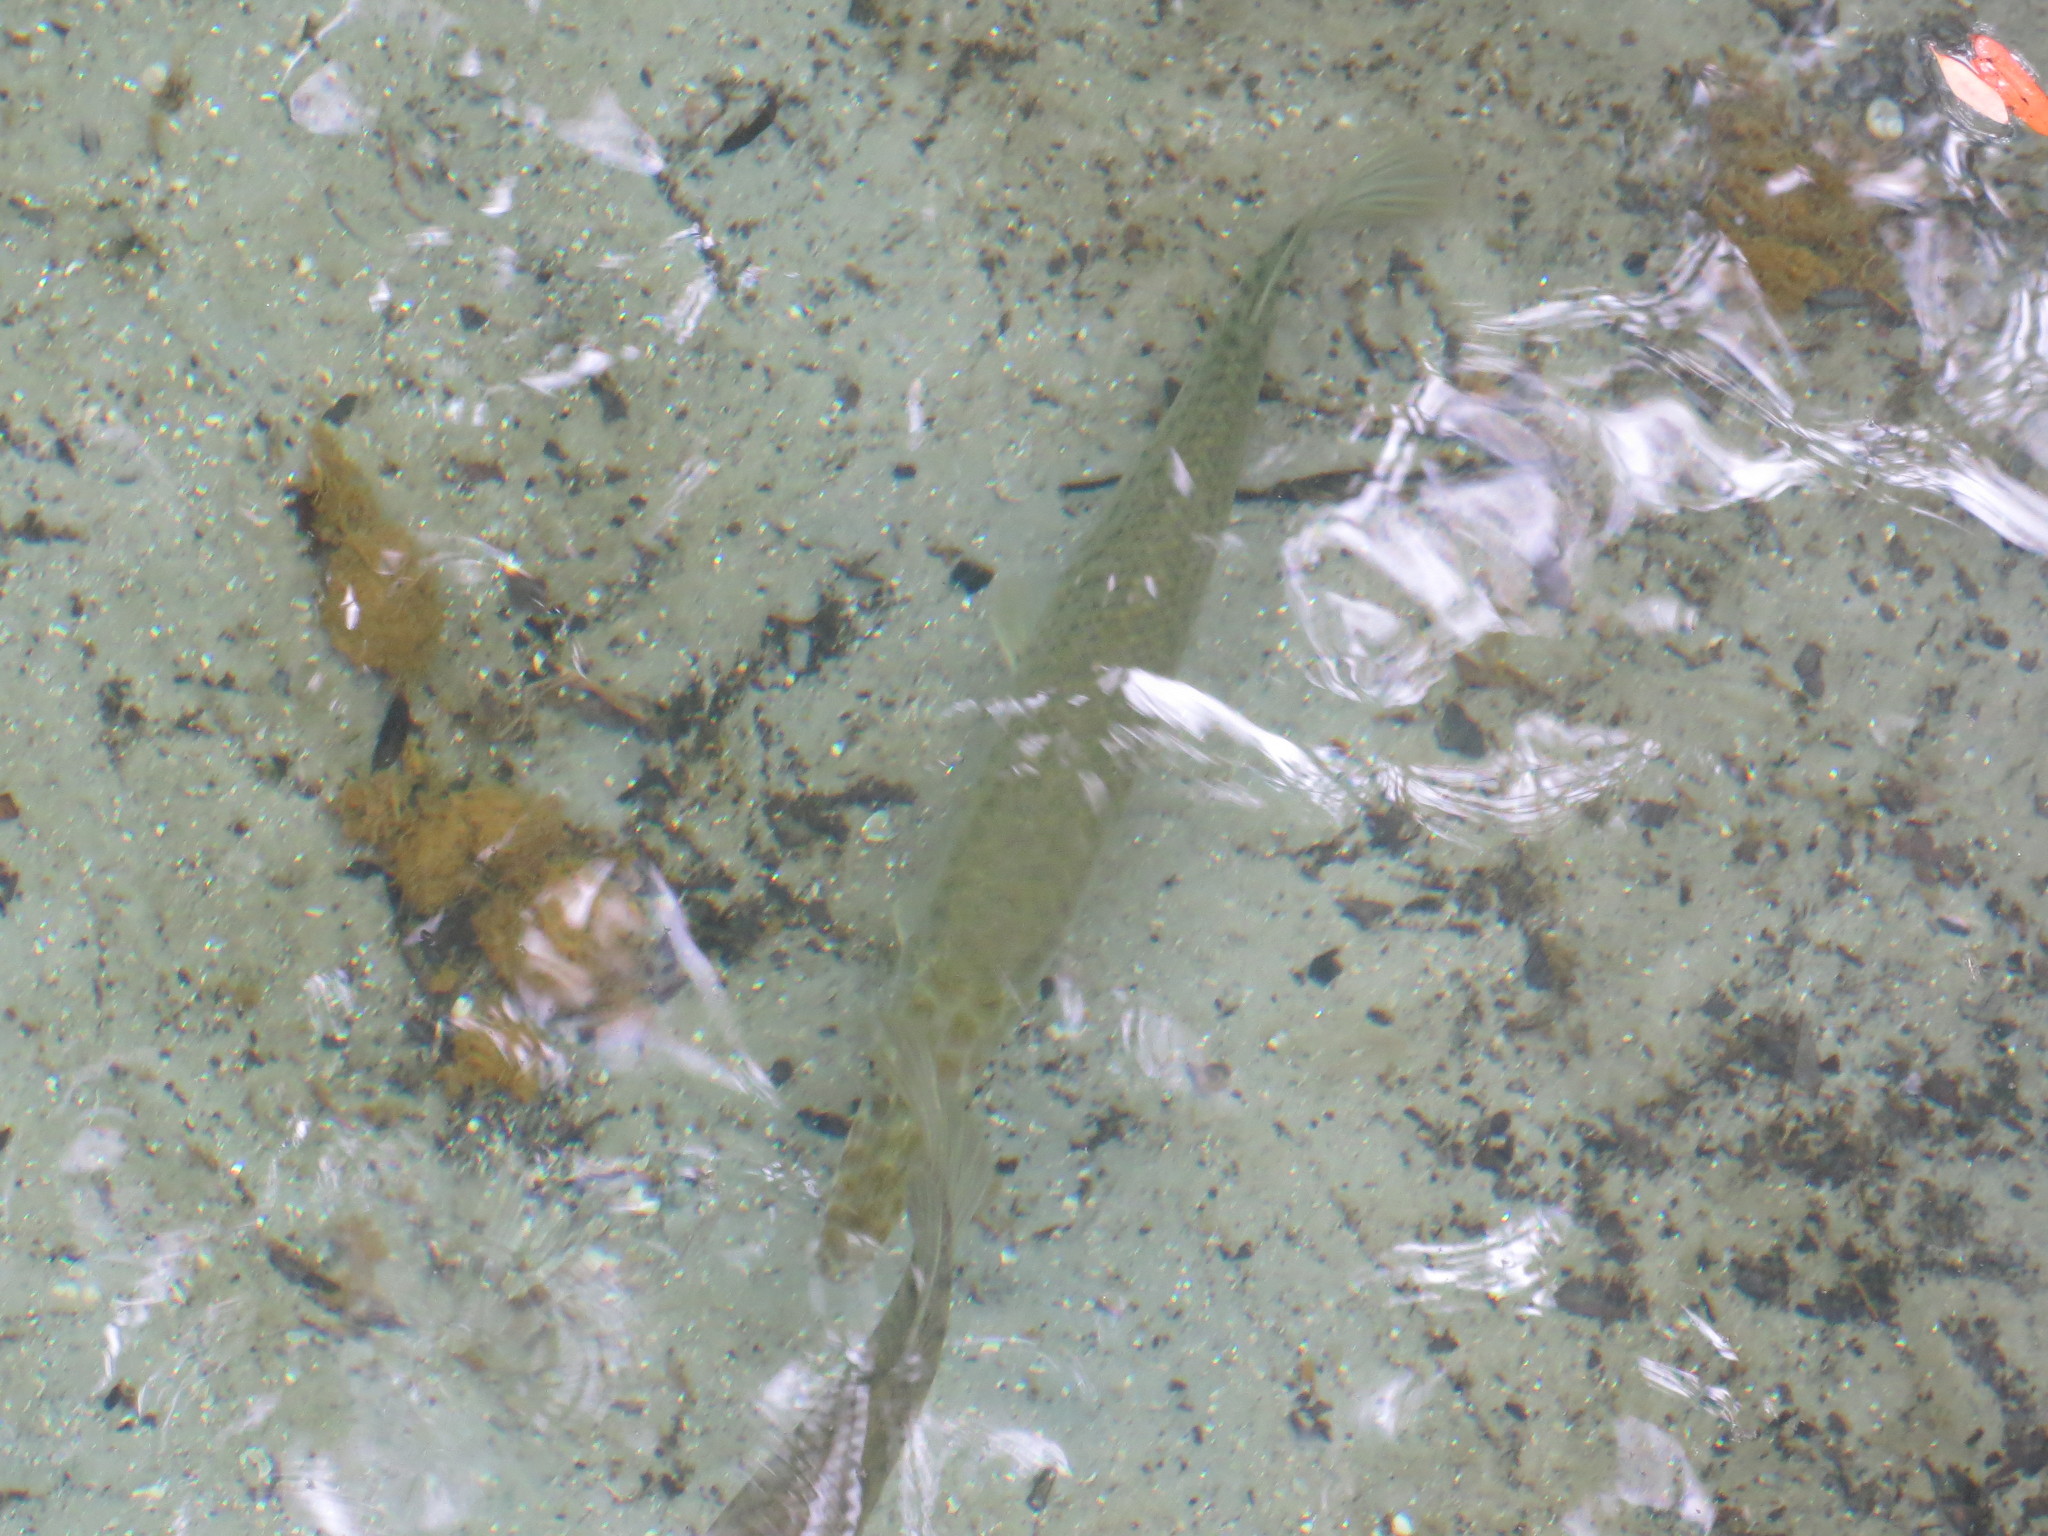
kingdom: Animalia
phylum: Chordata
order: Lepisosteiformes
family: Lepisosteidae
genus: Lepisosteus
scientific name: Lepisosteus platyrhincus
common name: Florida gar
